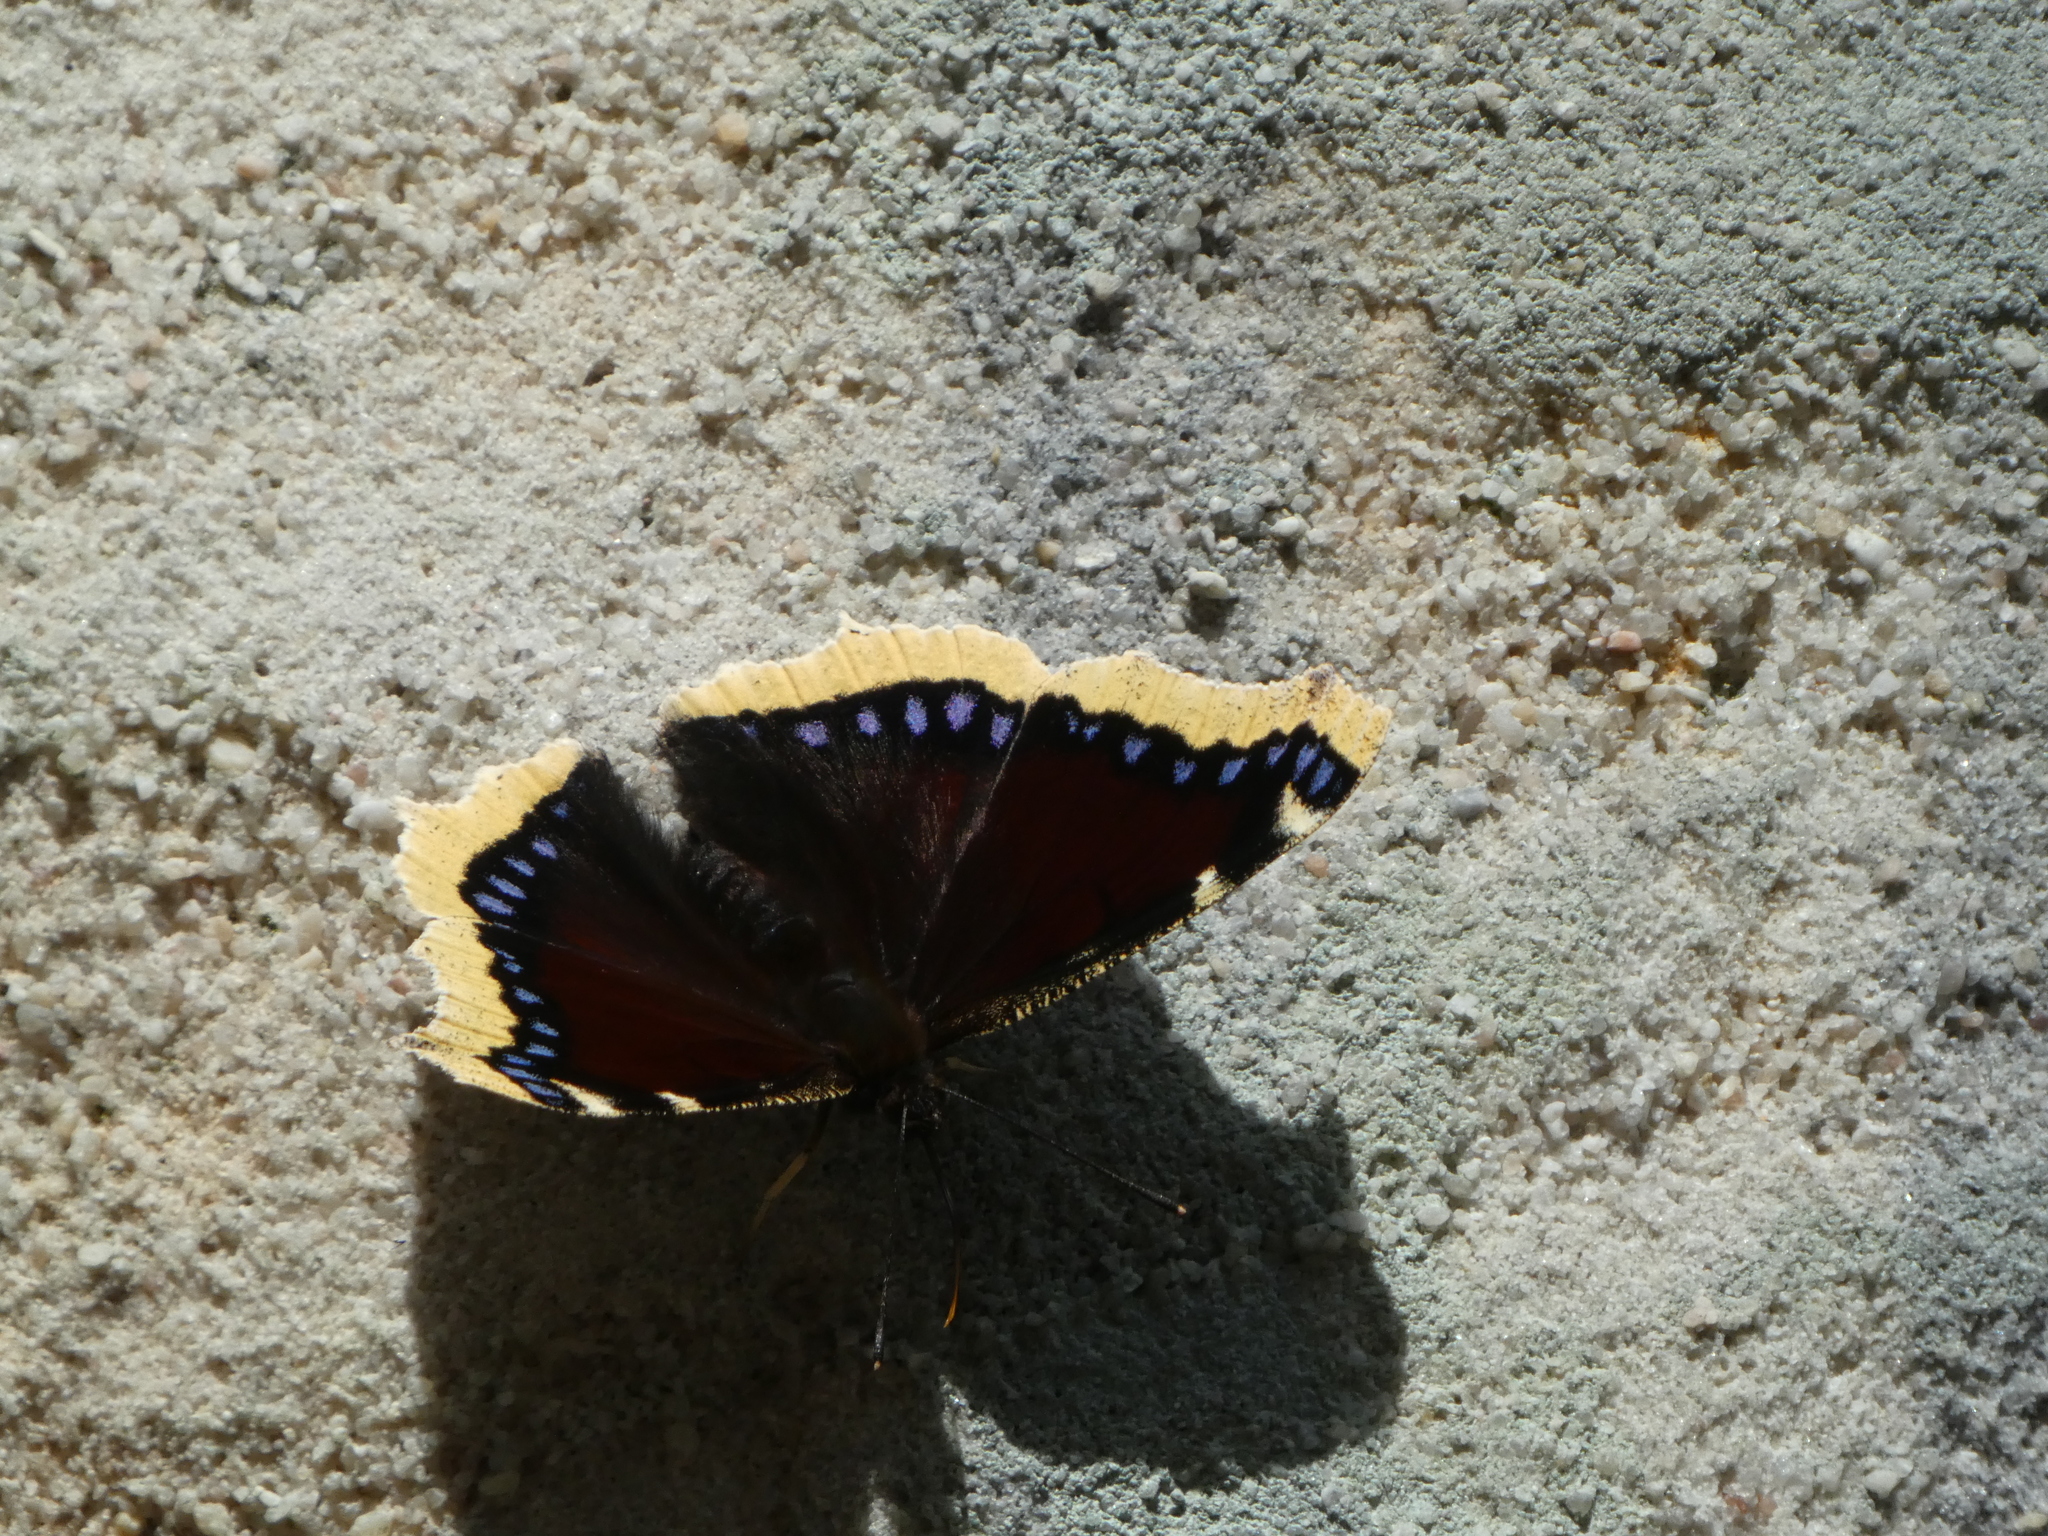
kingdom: Animalia
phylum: Arthropoda
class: Insecta
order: Lepidoptera
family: Nymphalidae
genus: Nymphalis
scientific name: Nymphalis antiopa
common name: Camberwell beauty
